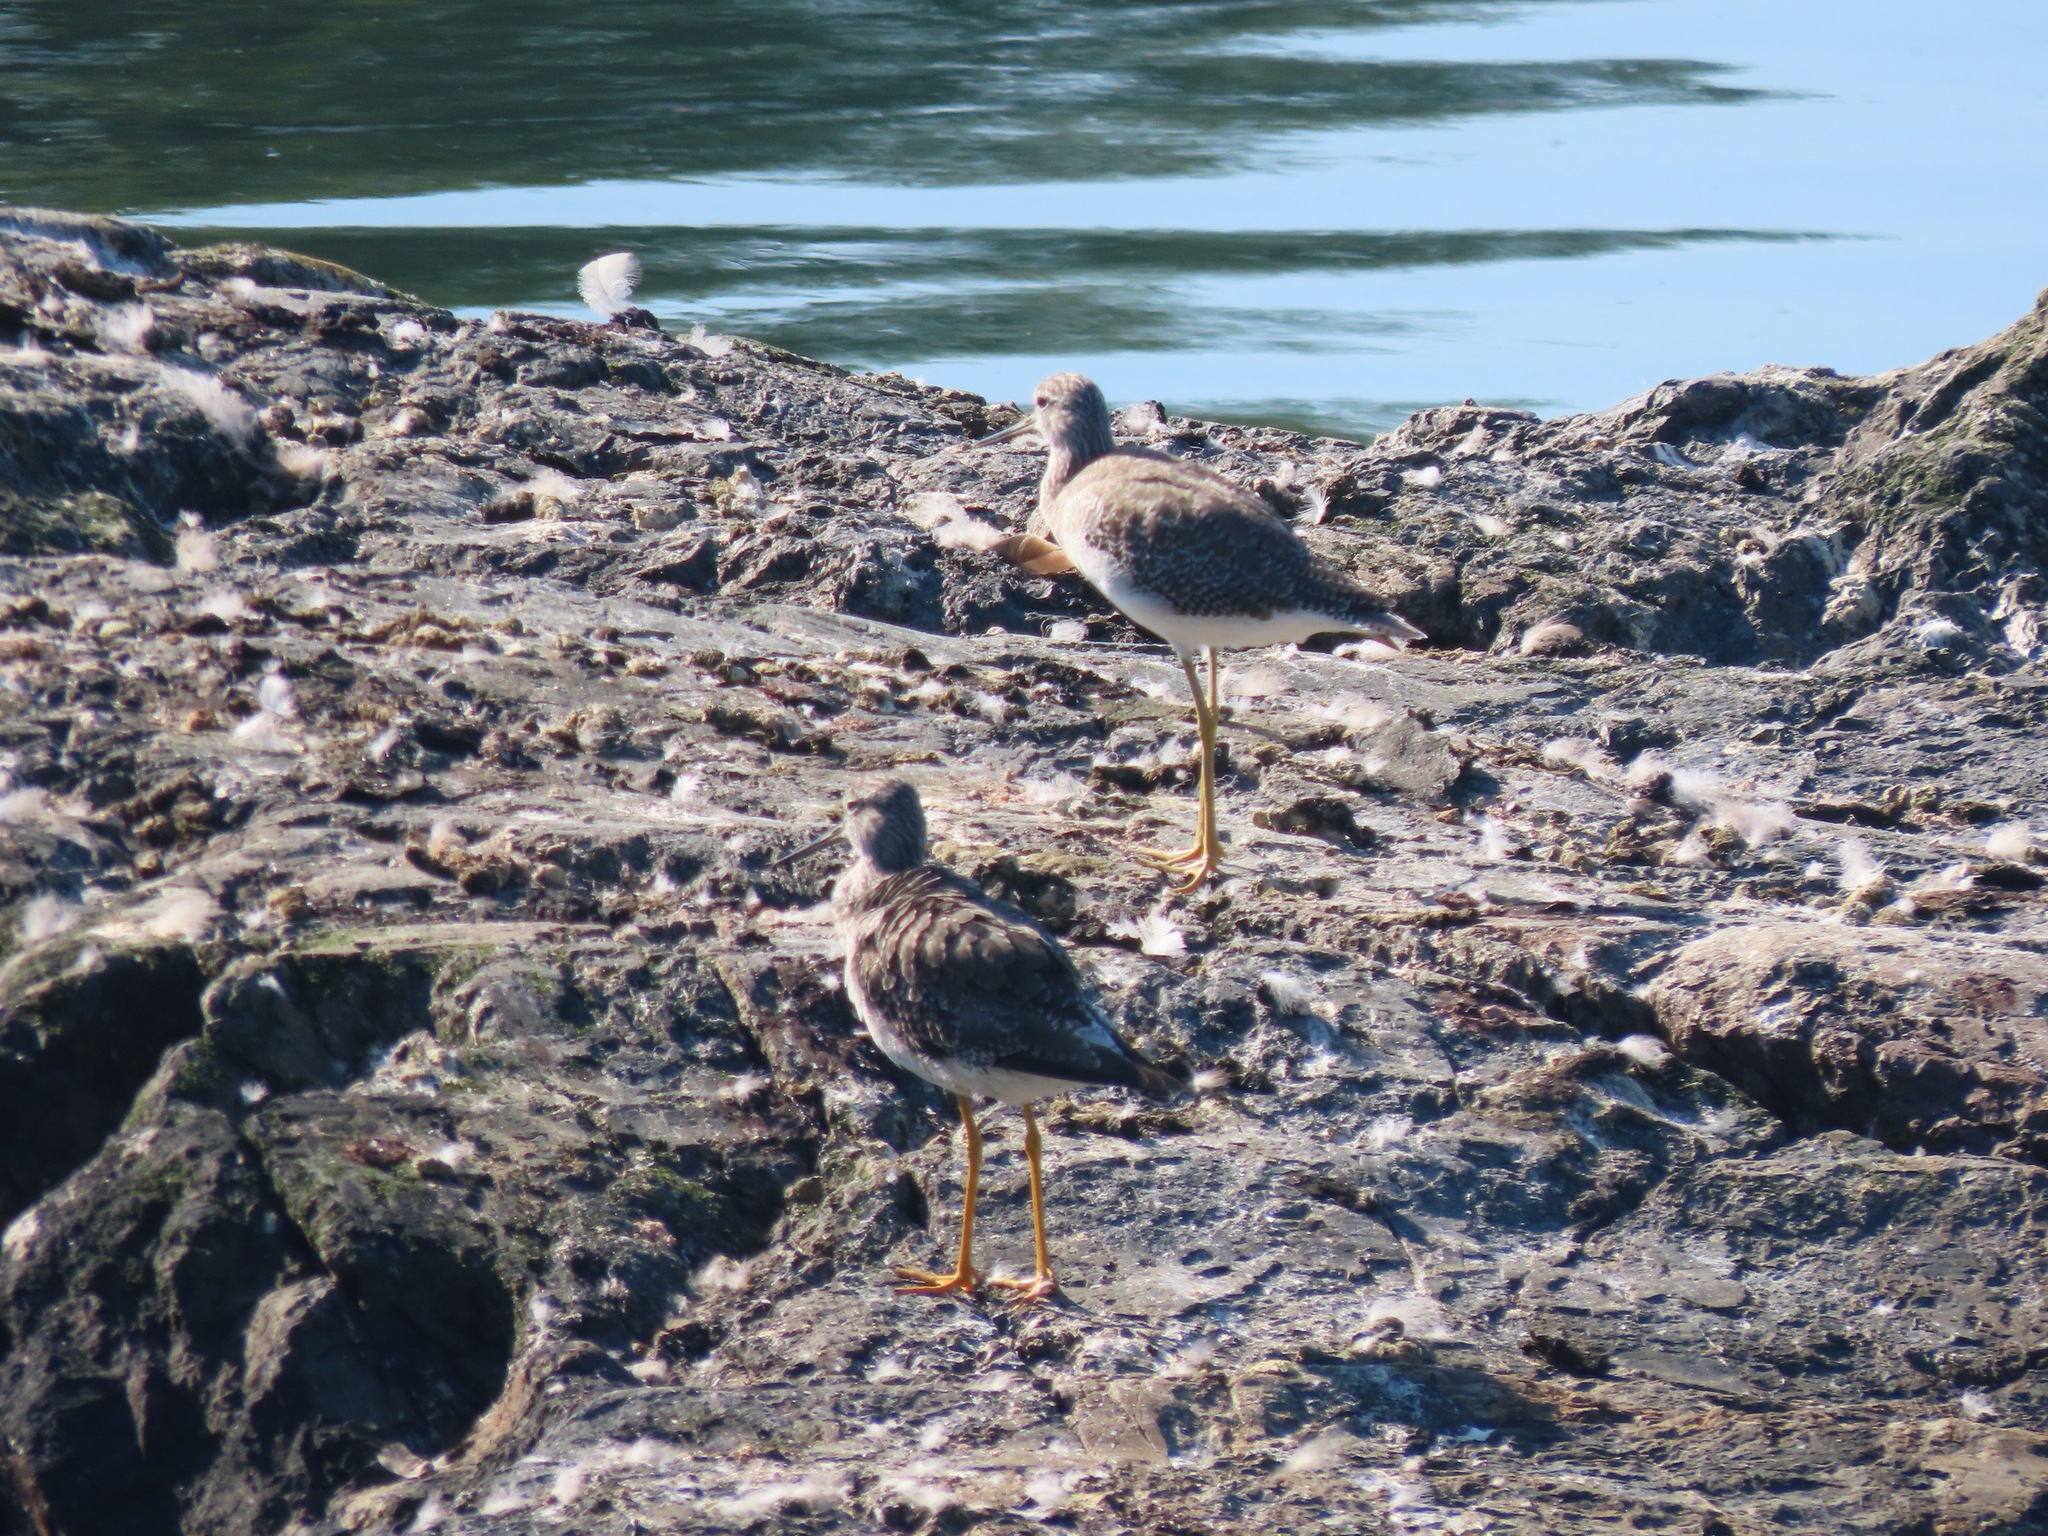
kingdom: Animalia
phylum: Chordata
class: Aves
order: Charadriiformes
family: Scolopacidae
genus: Tringa
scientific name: Tringa melanoleuca
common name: Greater yellowlegs
